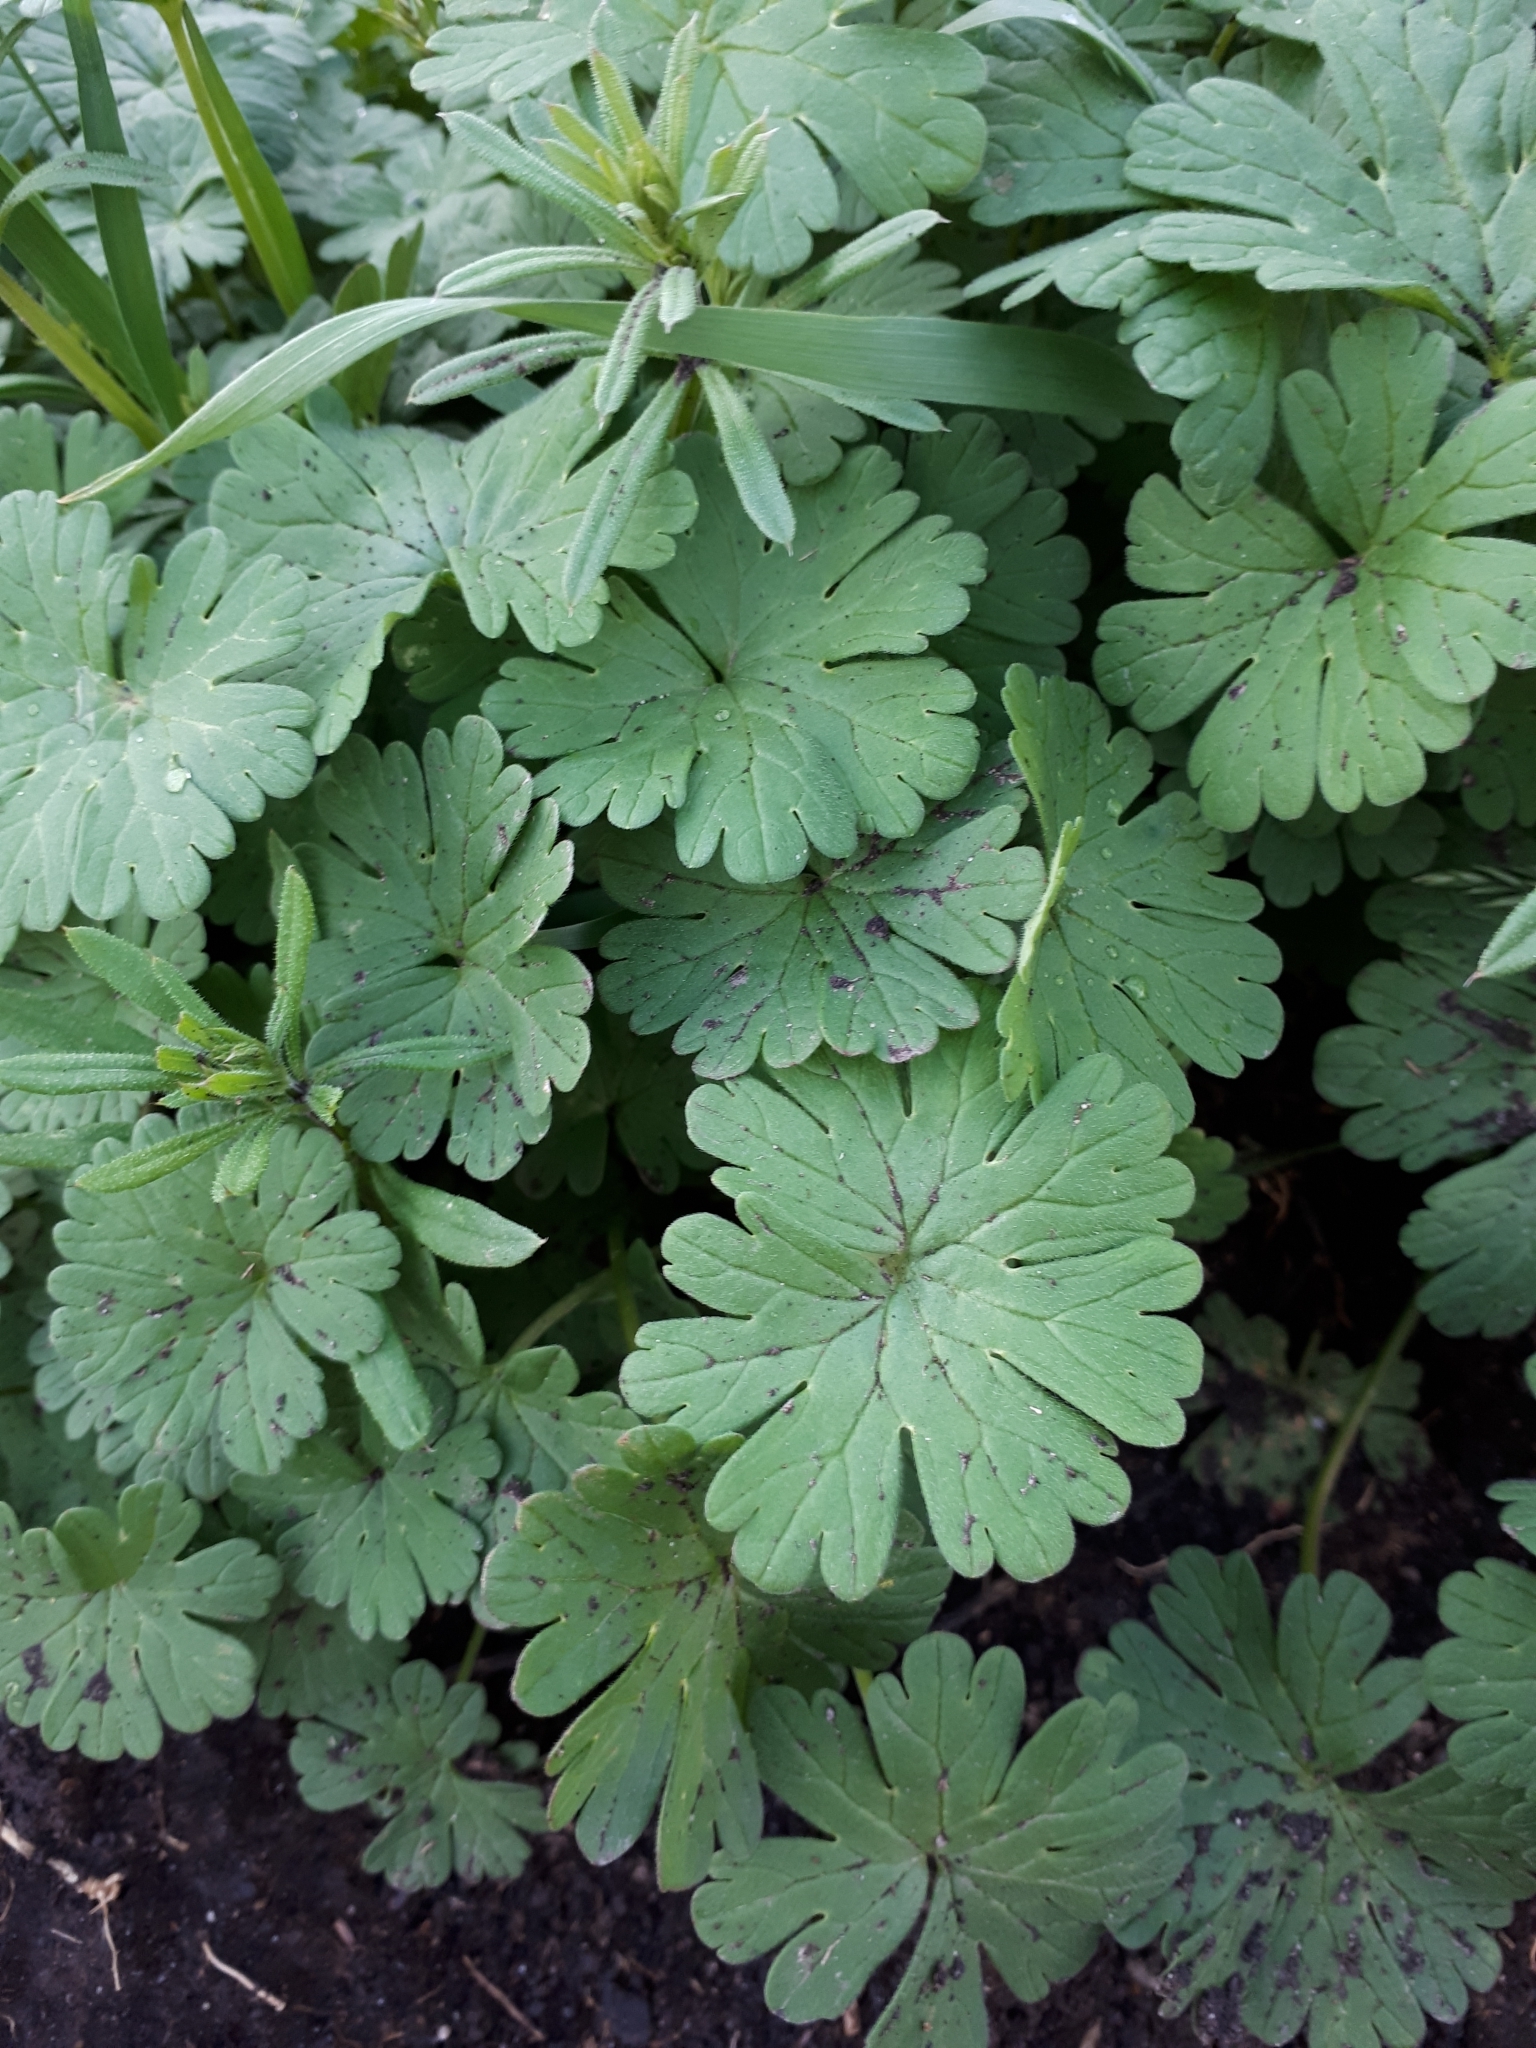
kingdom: Plantae
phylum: Tracheophyta
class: Magnoliopsida
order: Geraniales
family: Geraniaceae
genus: Geranium
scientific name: Geranium pusillum
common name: Small geranium
